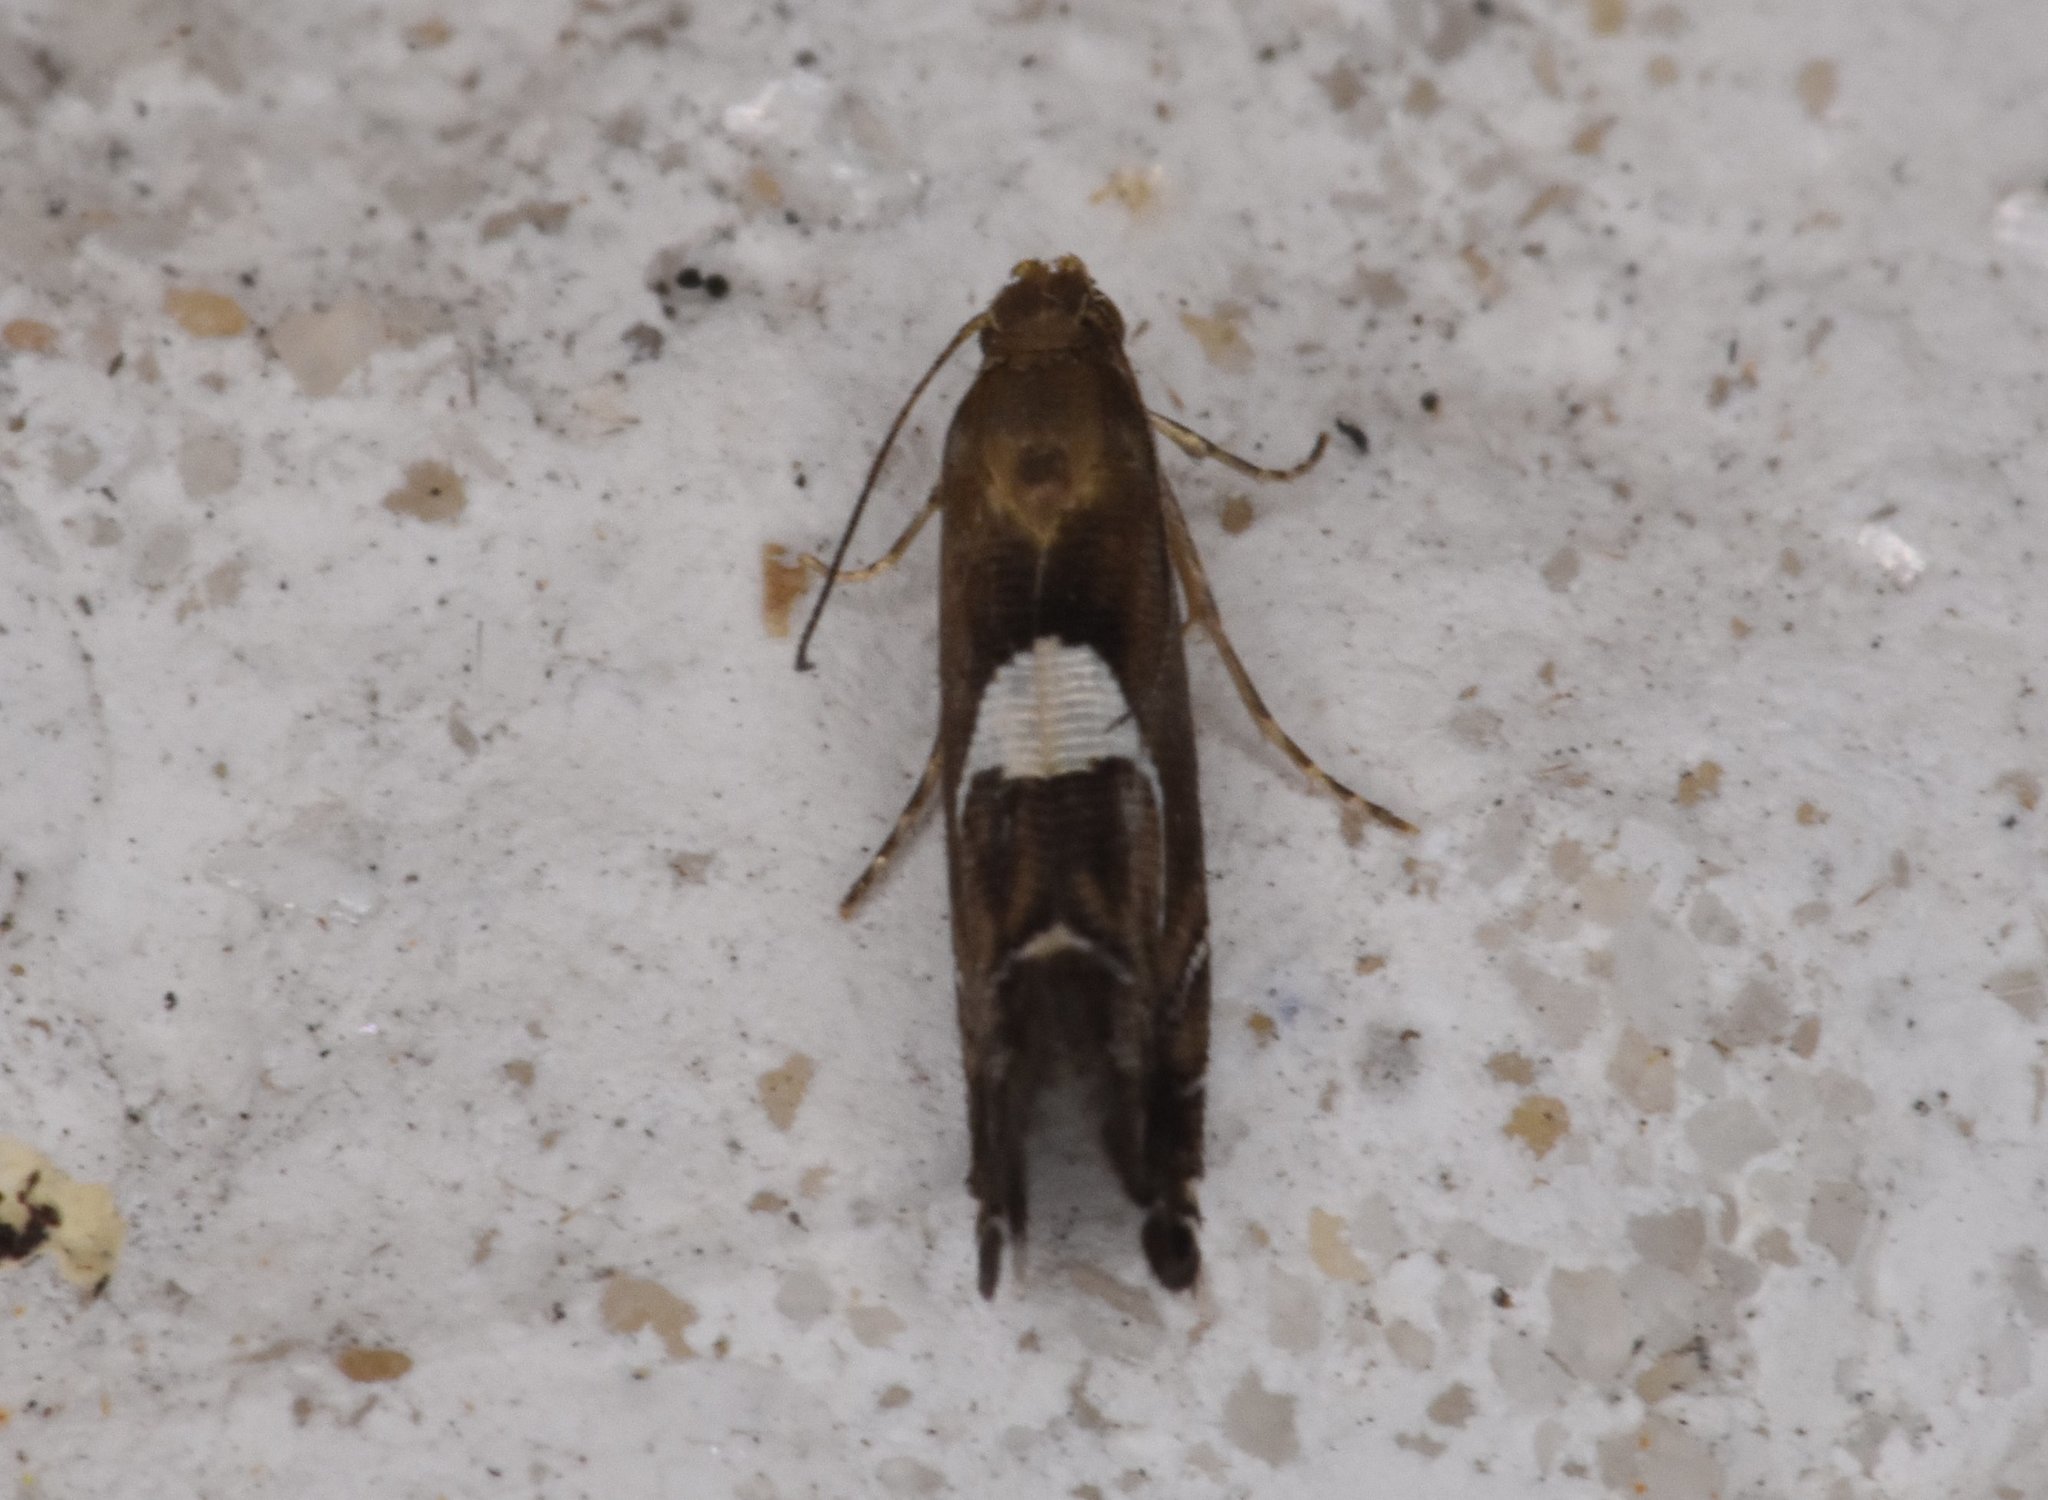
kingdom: Animalia
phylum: Arthropoda
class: Insecta
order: Lepidoptera
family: Glyphipterigidae
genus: Glyphipterix
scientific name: Glyphipterix Diploschizia impigritella
